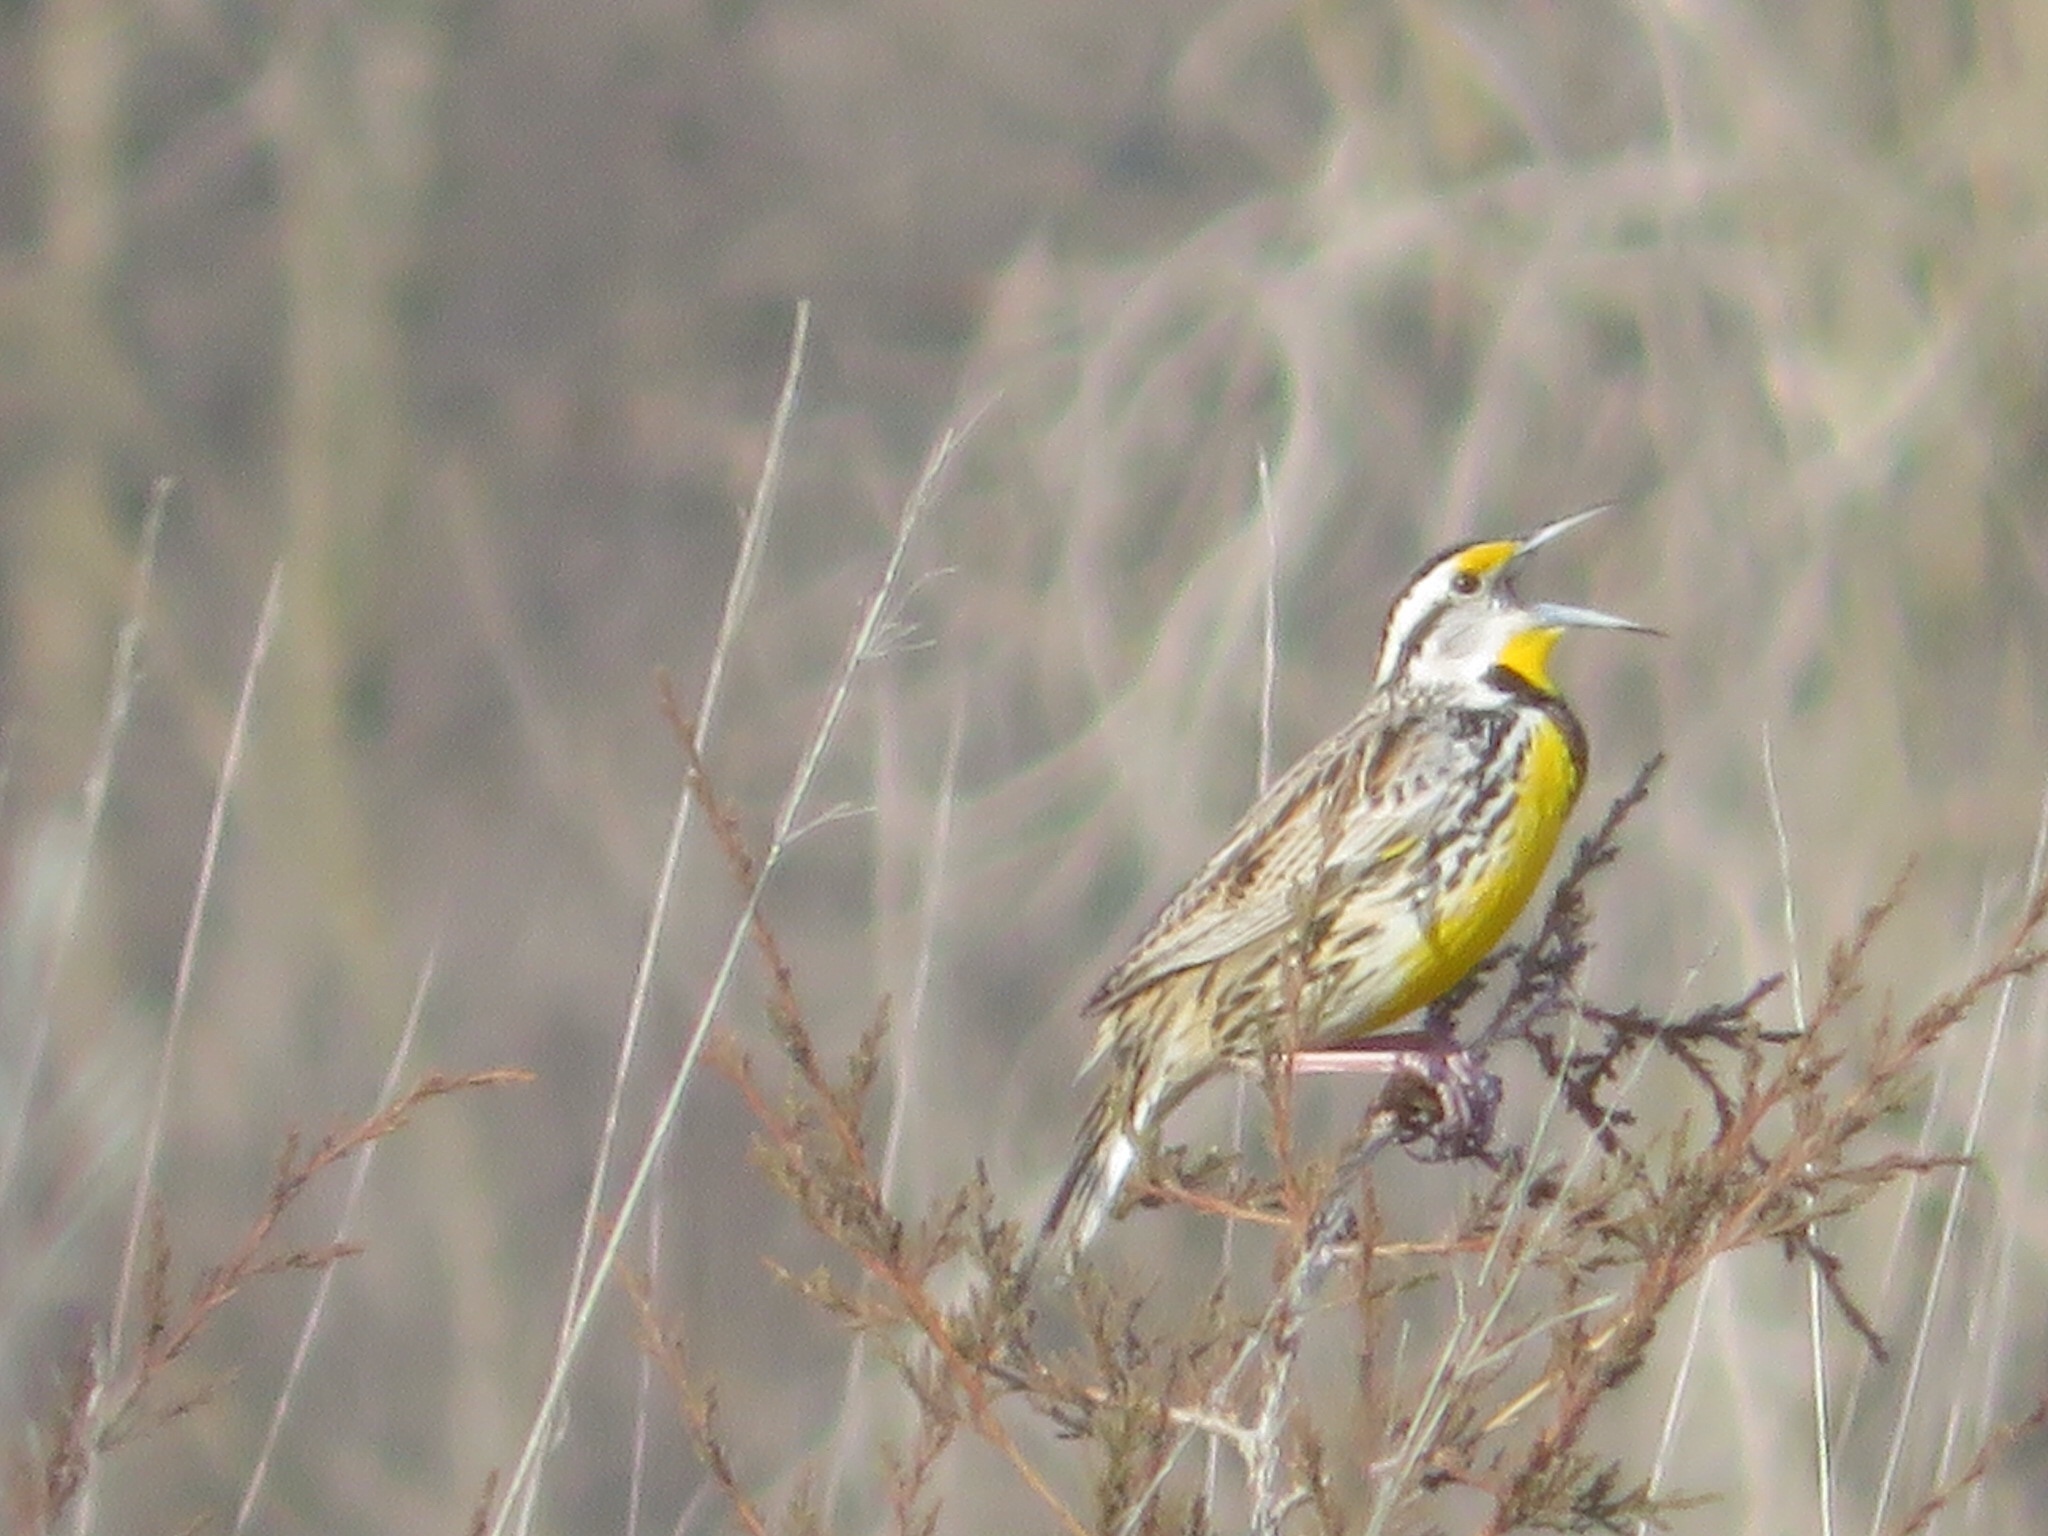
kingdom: Animalia
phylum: Chordata
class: Aves
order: Passeriformes
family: Icteridae
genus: Sturnella
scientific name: Sturnella magna
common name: Eastern meadowlark
